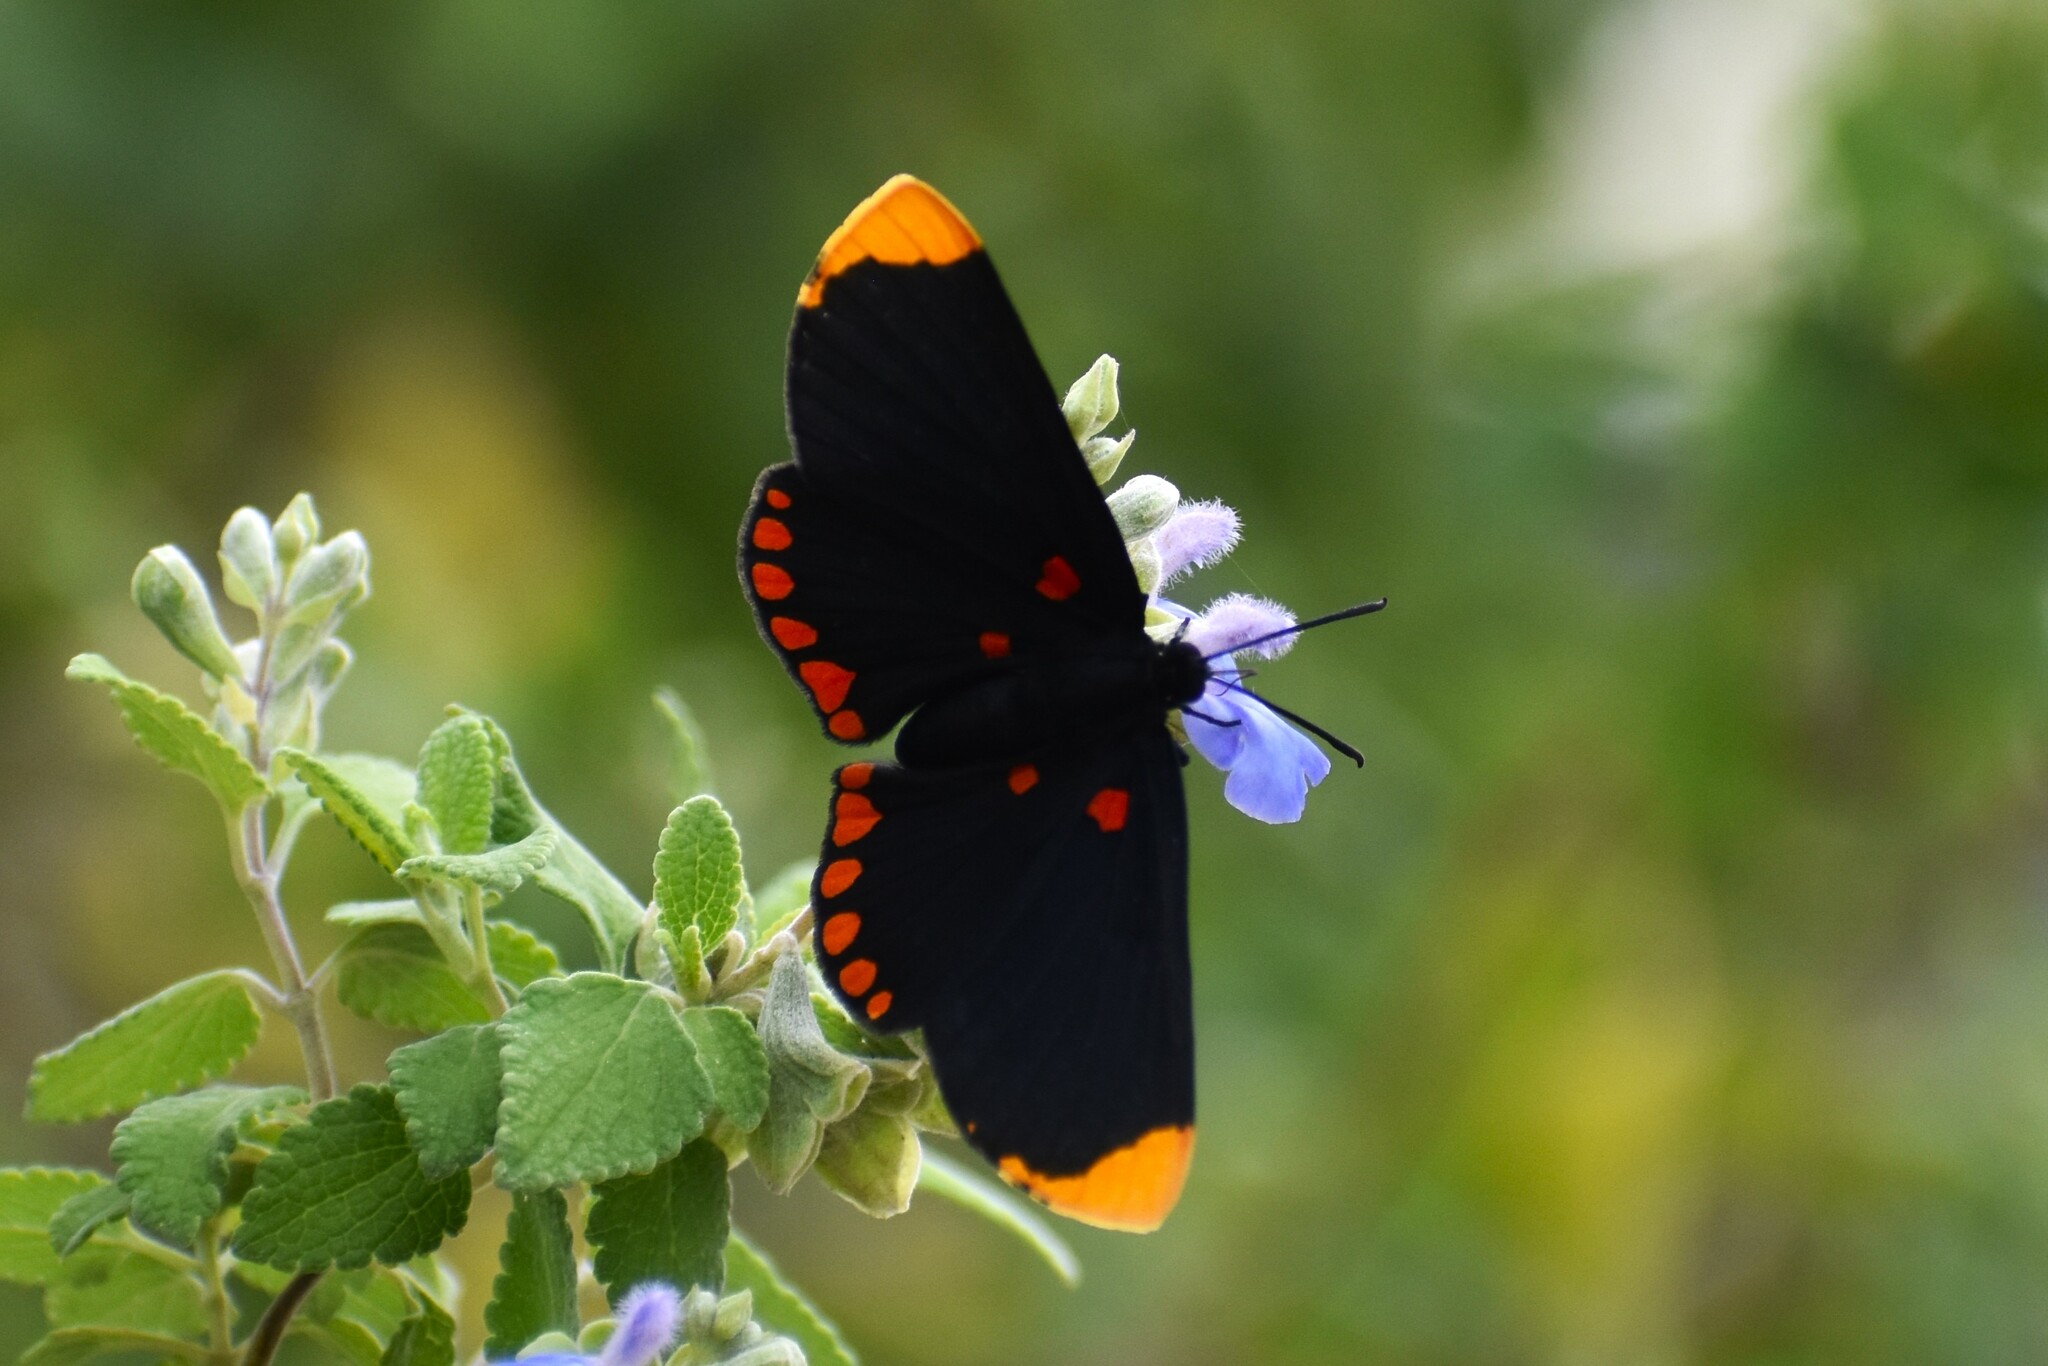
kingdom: Animalia
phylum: Arthropoda
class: Insecta
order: Lepidoptera
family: Lycaenidae
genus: Melanis
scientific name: Melanis pixe
